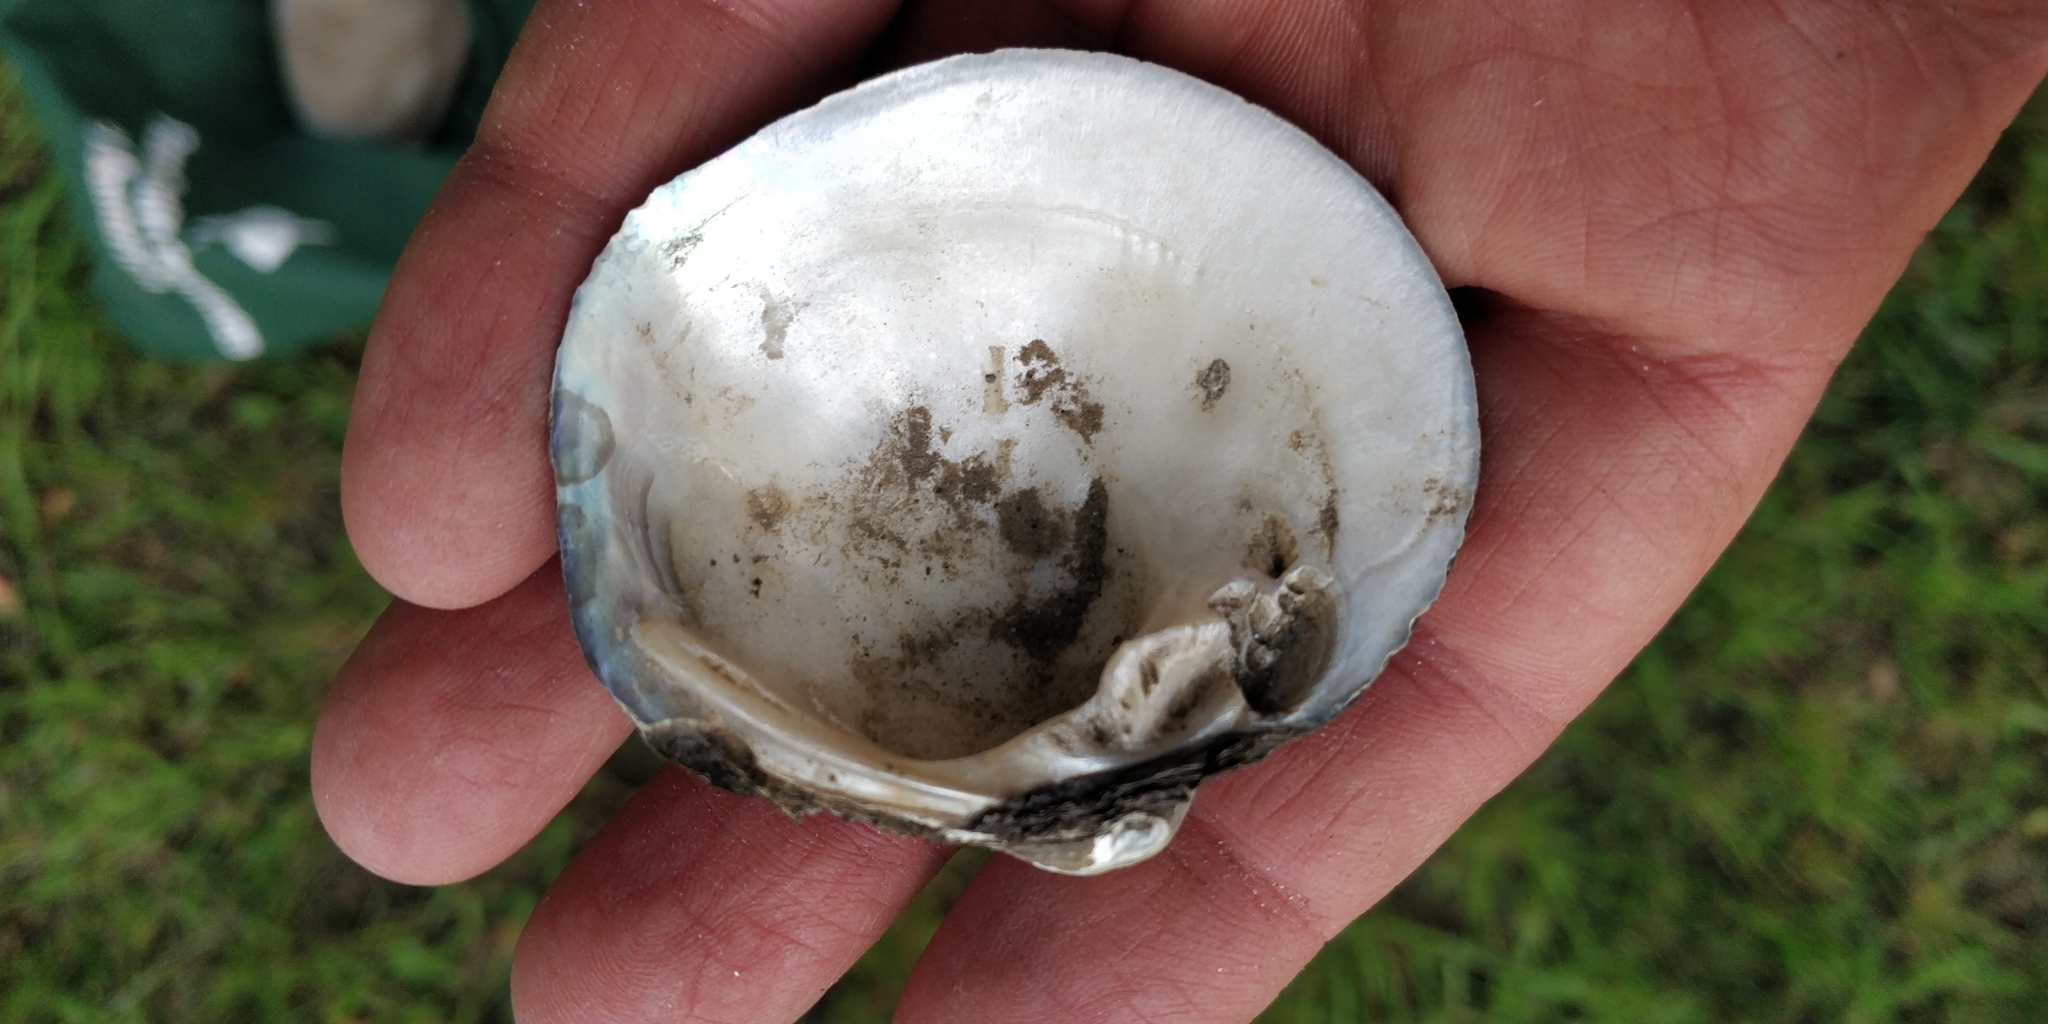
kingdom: Animalia
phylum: Mollusca
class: Bivalvia
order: Unionida
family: Unionidae
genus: Cyclonaias
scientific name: Cyclonaias pustulosa
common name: Pimpleback
